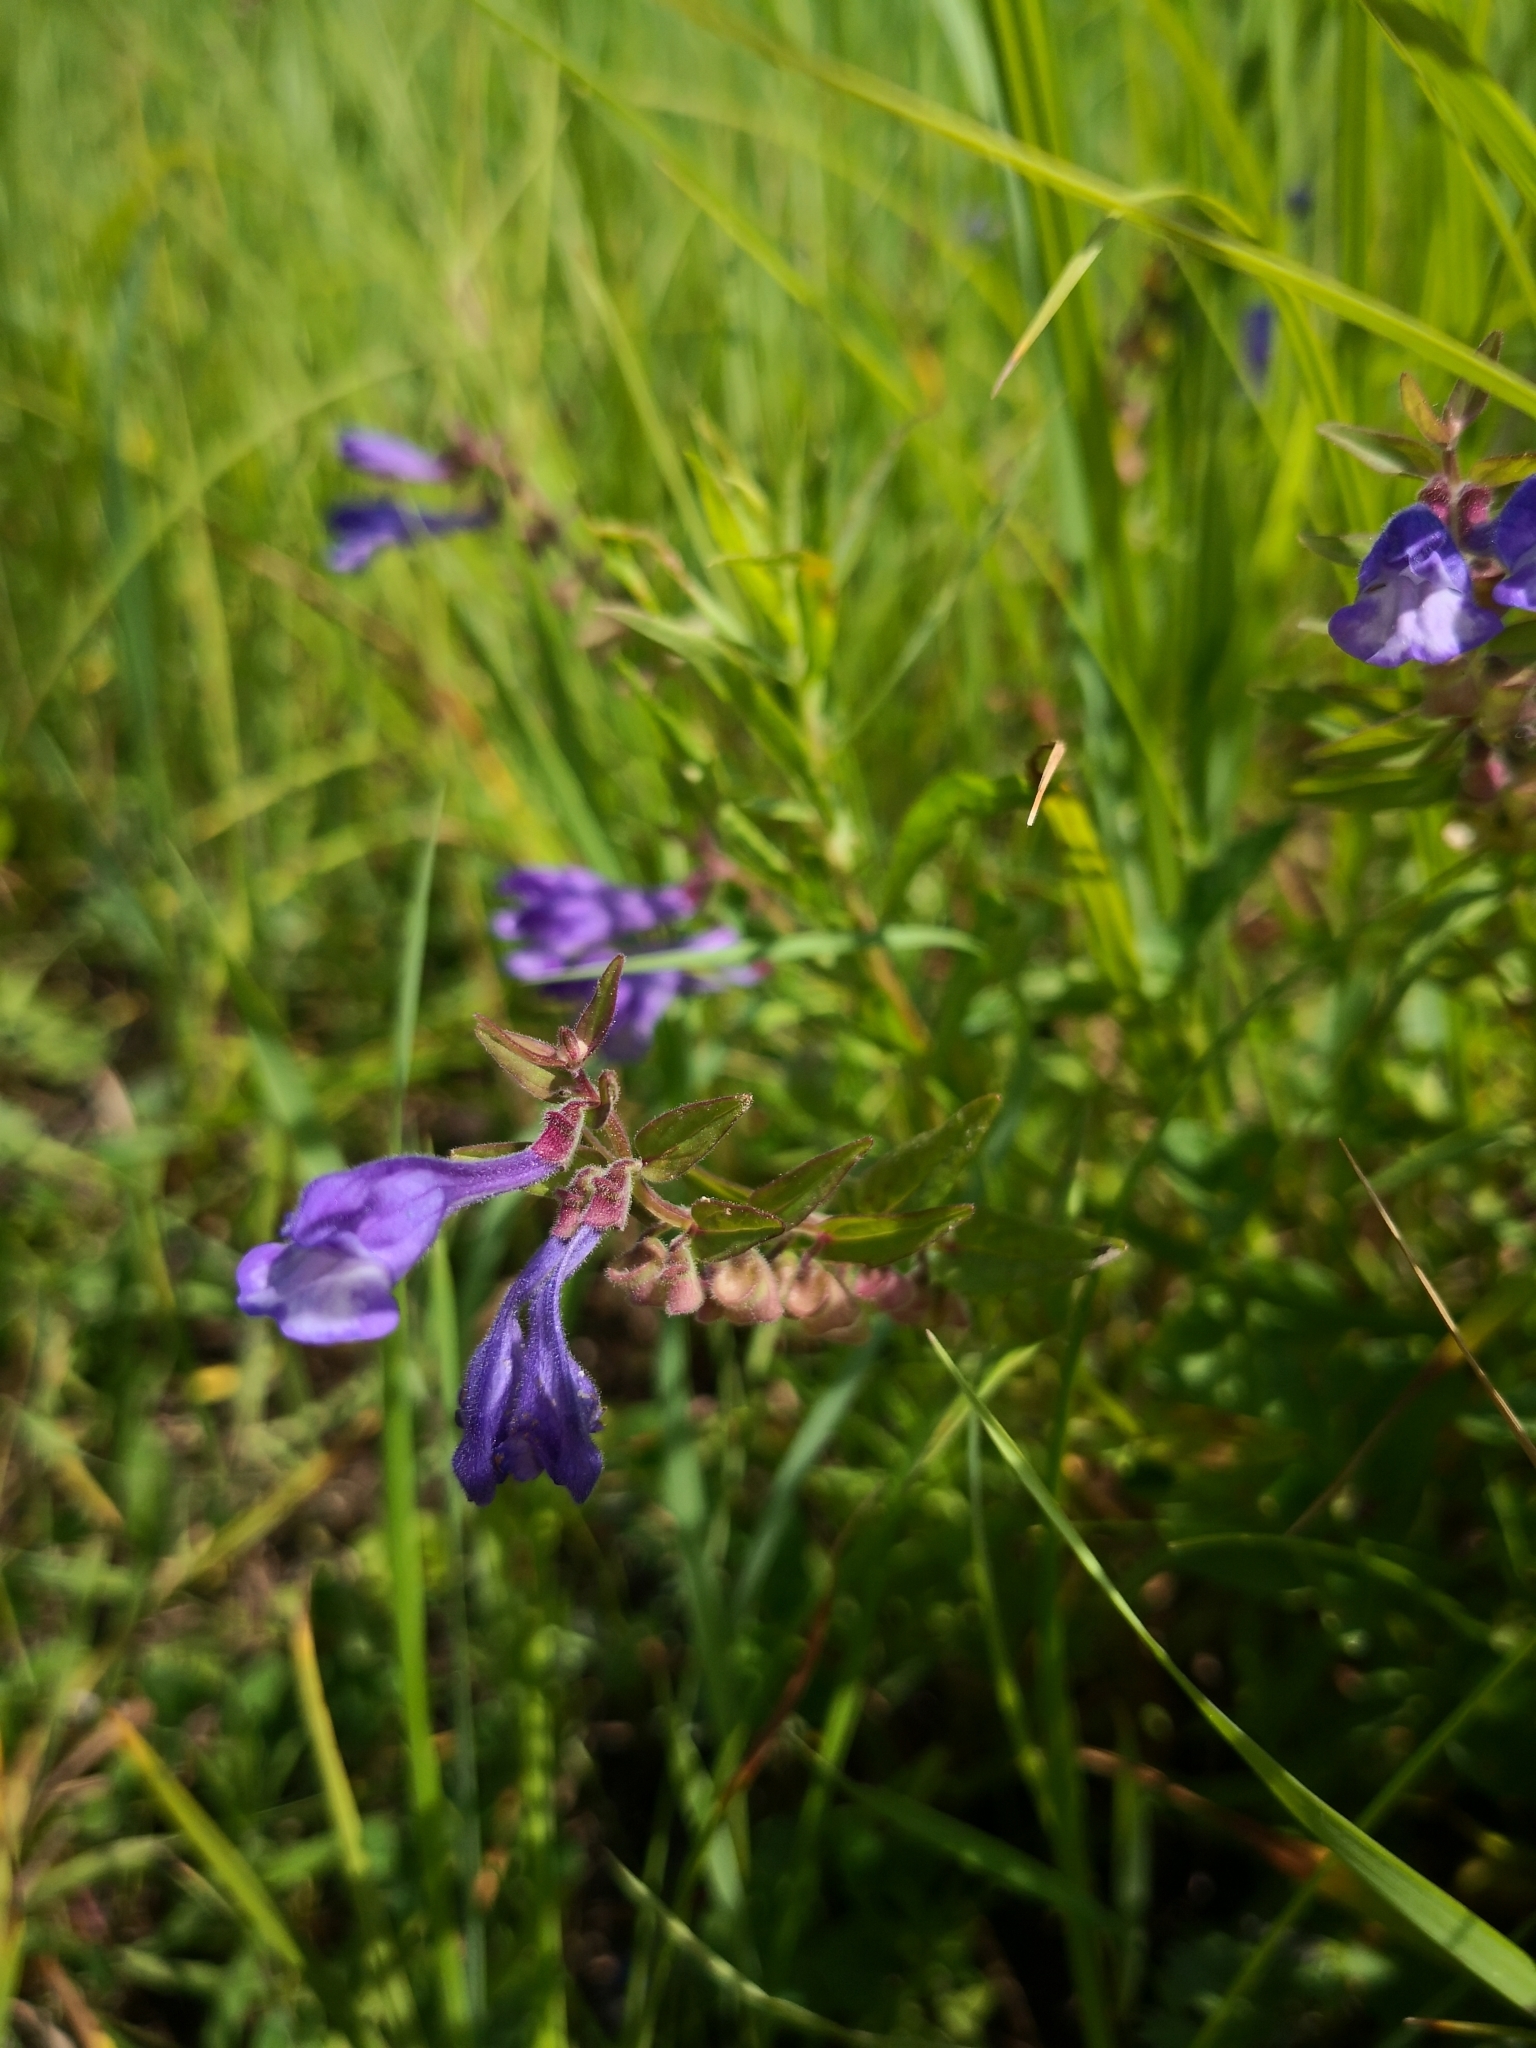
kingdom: Plantae
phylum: Tracheophyta
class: Magnoliopsida
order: Lamiales
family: Lamiaceae
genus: Scutellaria
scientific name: Scutellaria galericulata
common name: Skullcap
